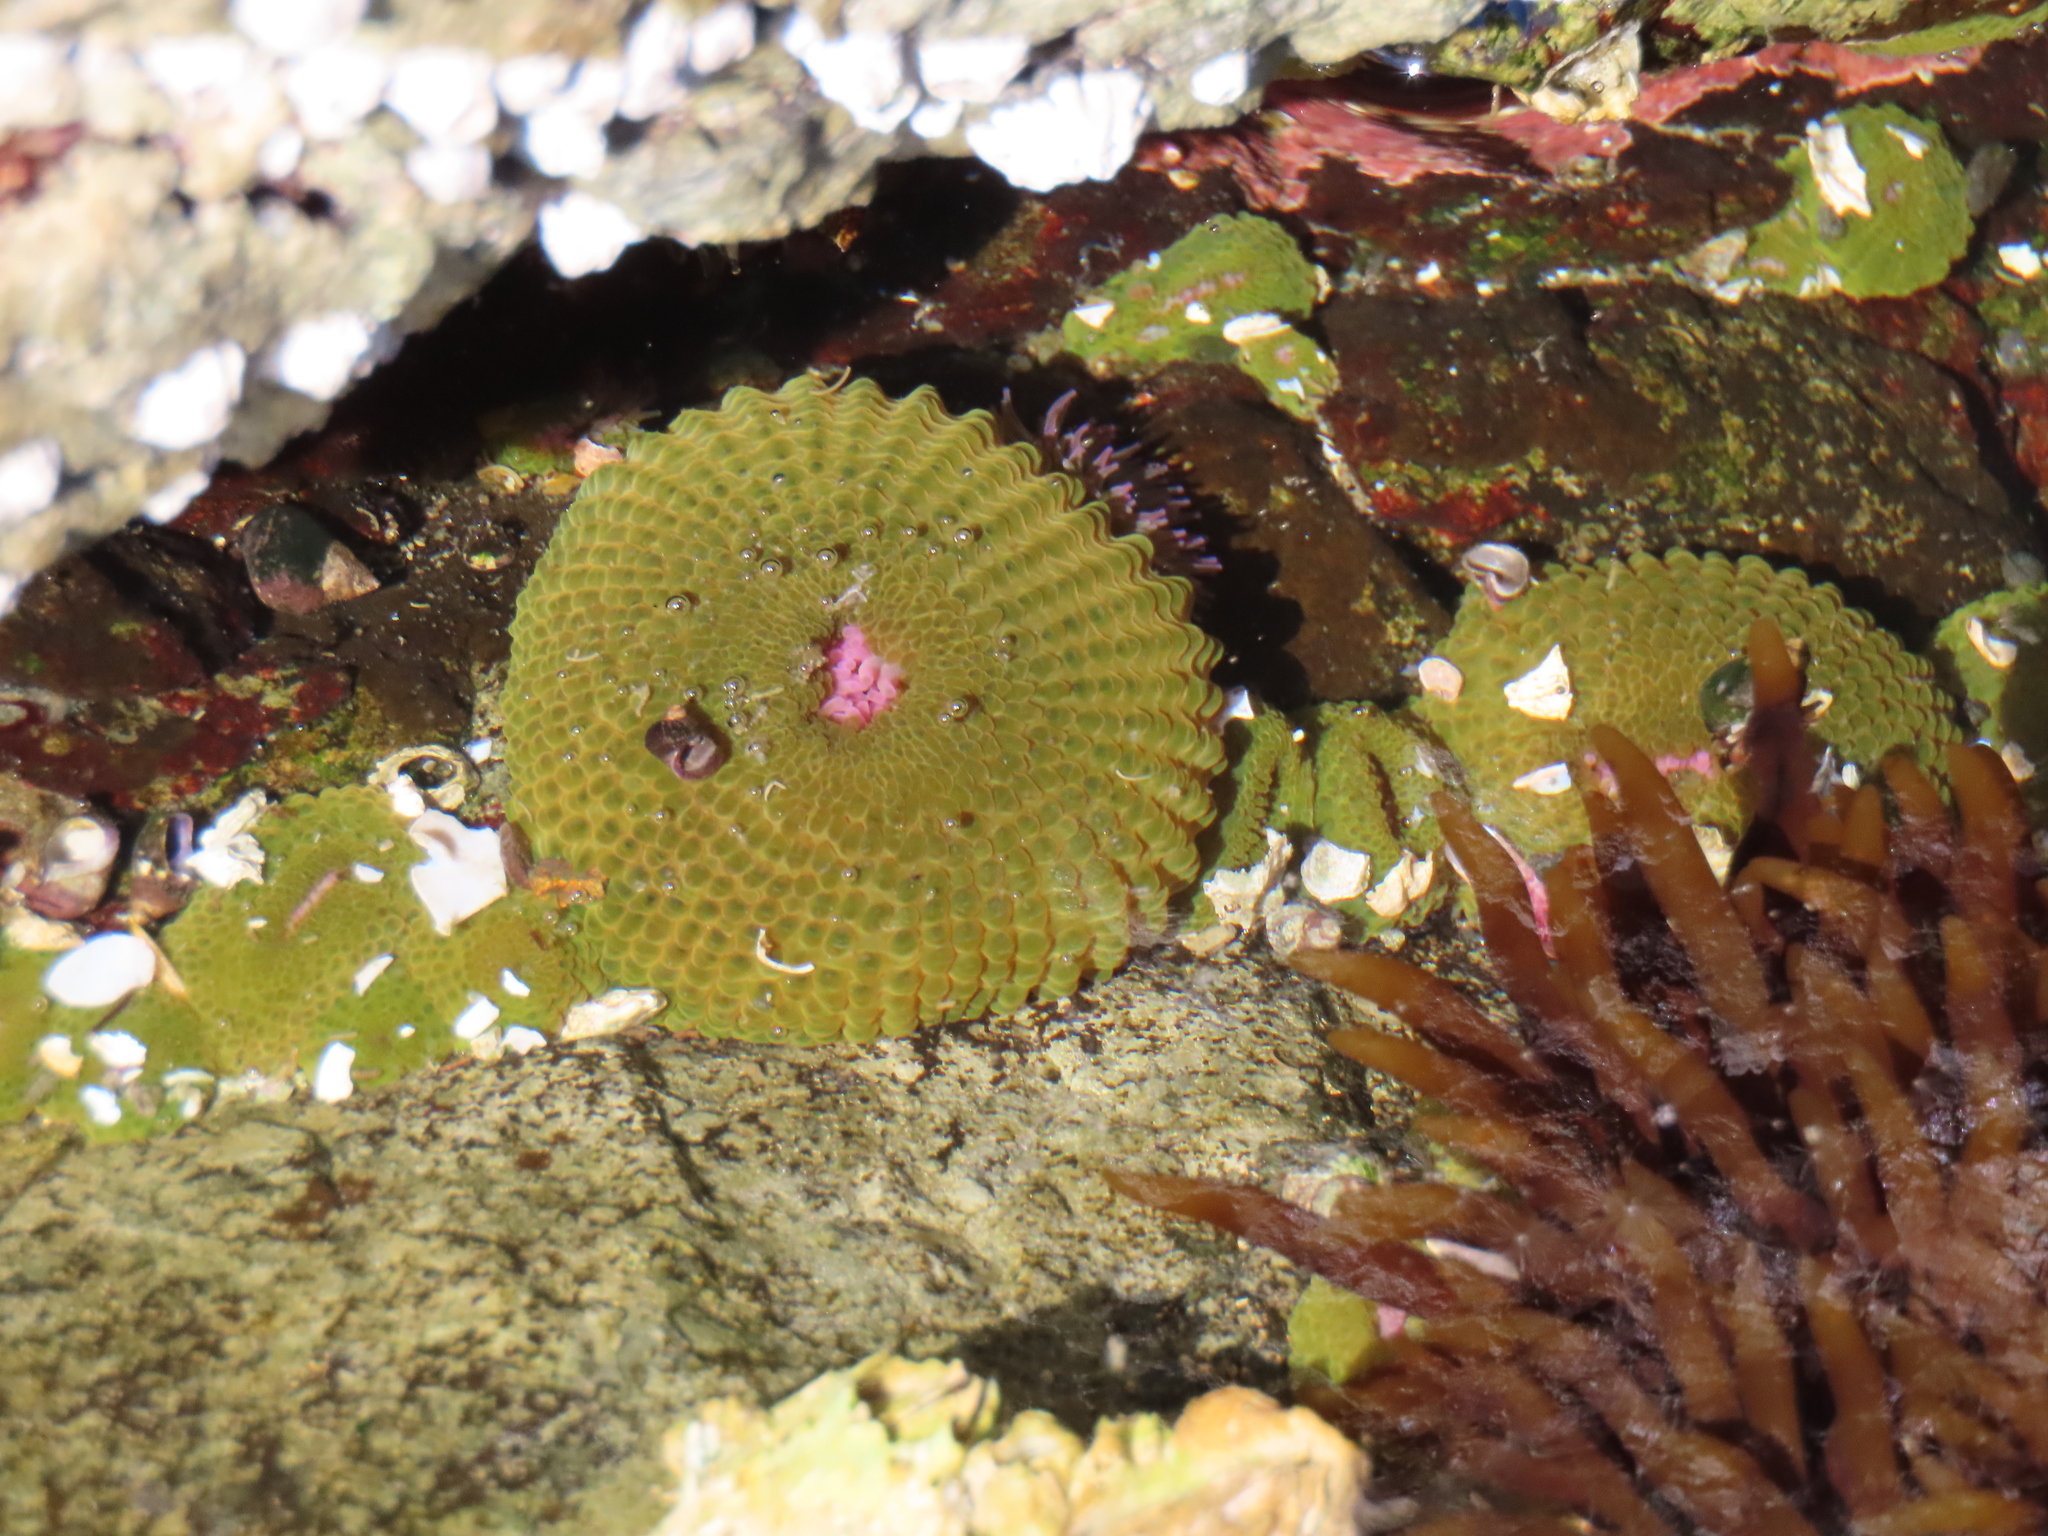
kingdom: Animalia
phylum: Cnidaria
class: Anthozoa
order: Actiniaria
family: Actiniidae
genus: Anthopleura
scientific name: Anthopleura elegantissima
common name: Clonal anemone
